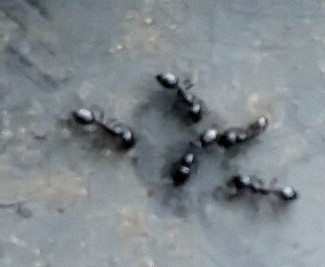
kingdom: Animalia
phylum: Arthropoda
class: Insecta
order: Hymenoptera
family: Formicidae
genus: Monomorium
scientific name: Monomorium minimum
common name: Little black ant
